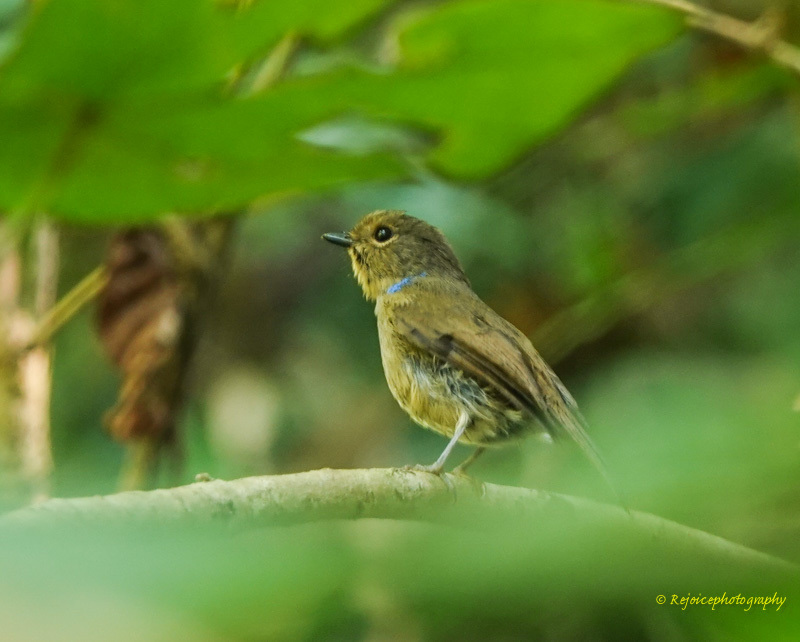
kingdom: Animalia
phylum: Chordata
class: Aves
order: Passeriformes
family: Muscicapidae
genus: Niltava
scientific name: Niltava macgrigoriae
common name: Small niltava
